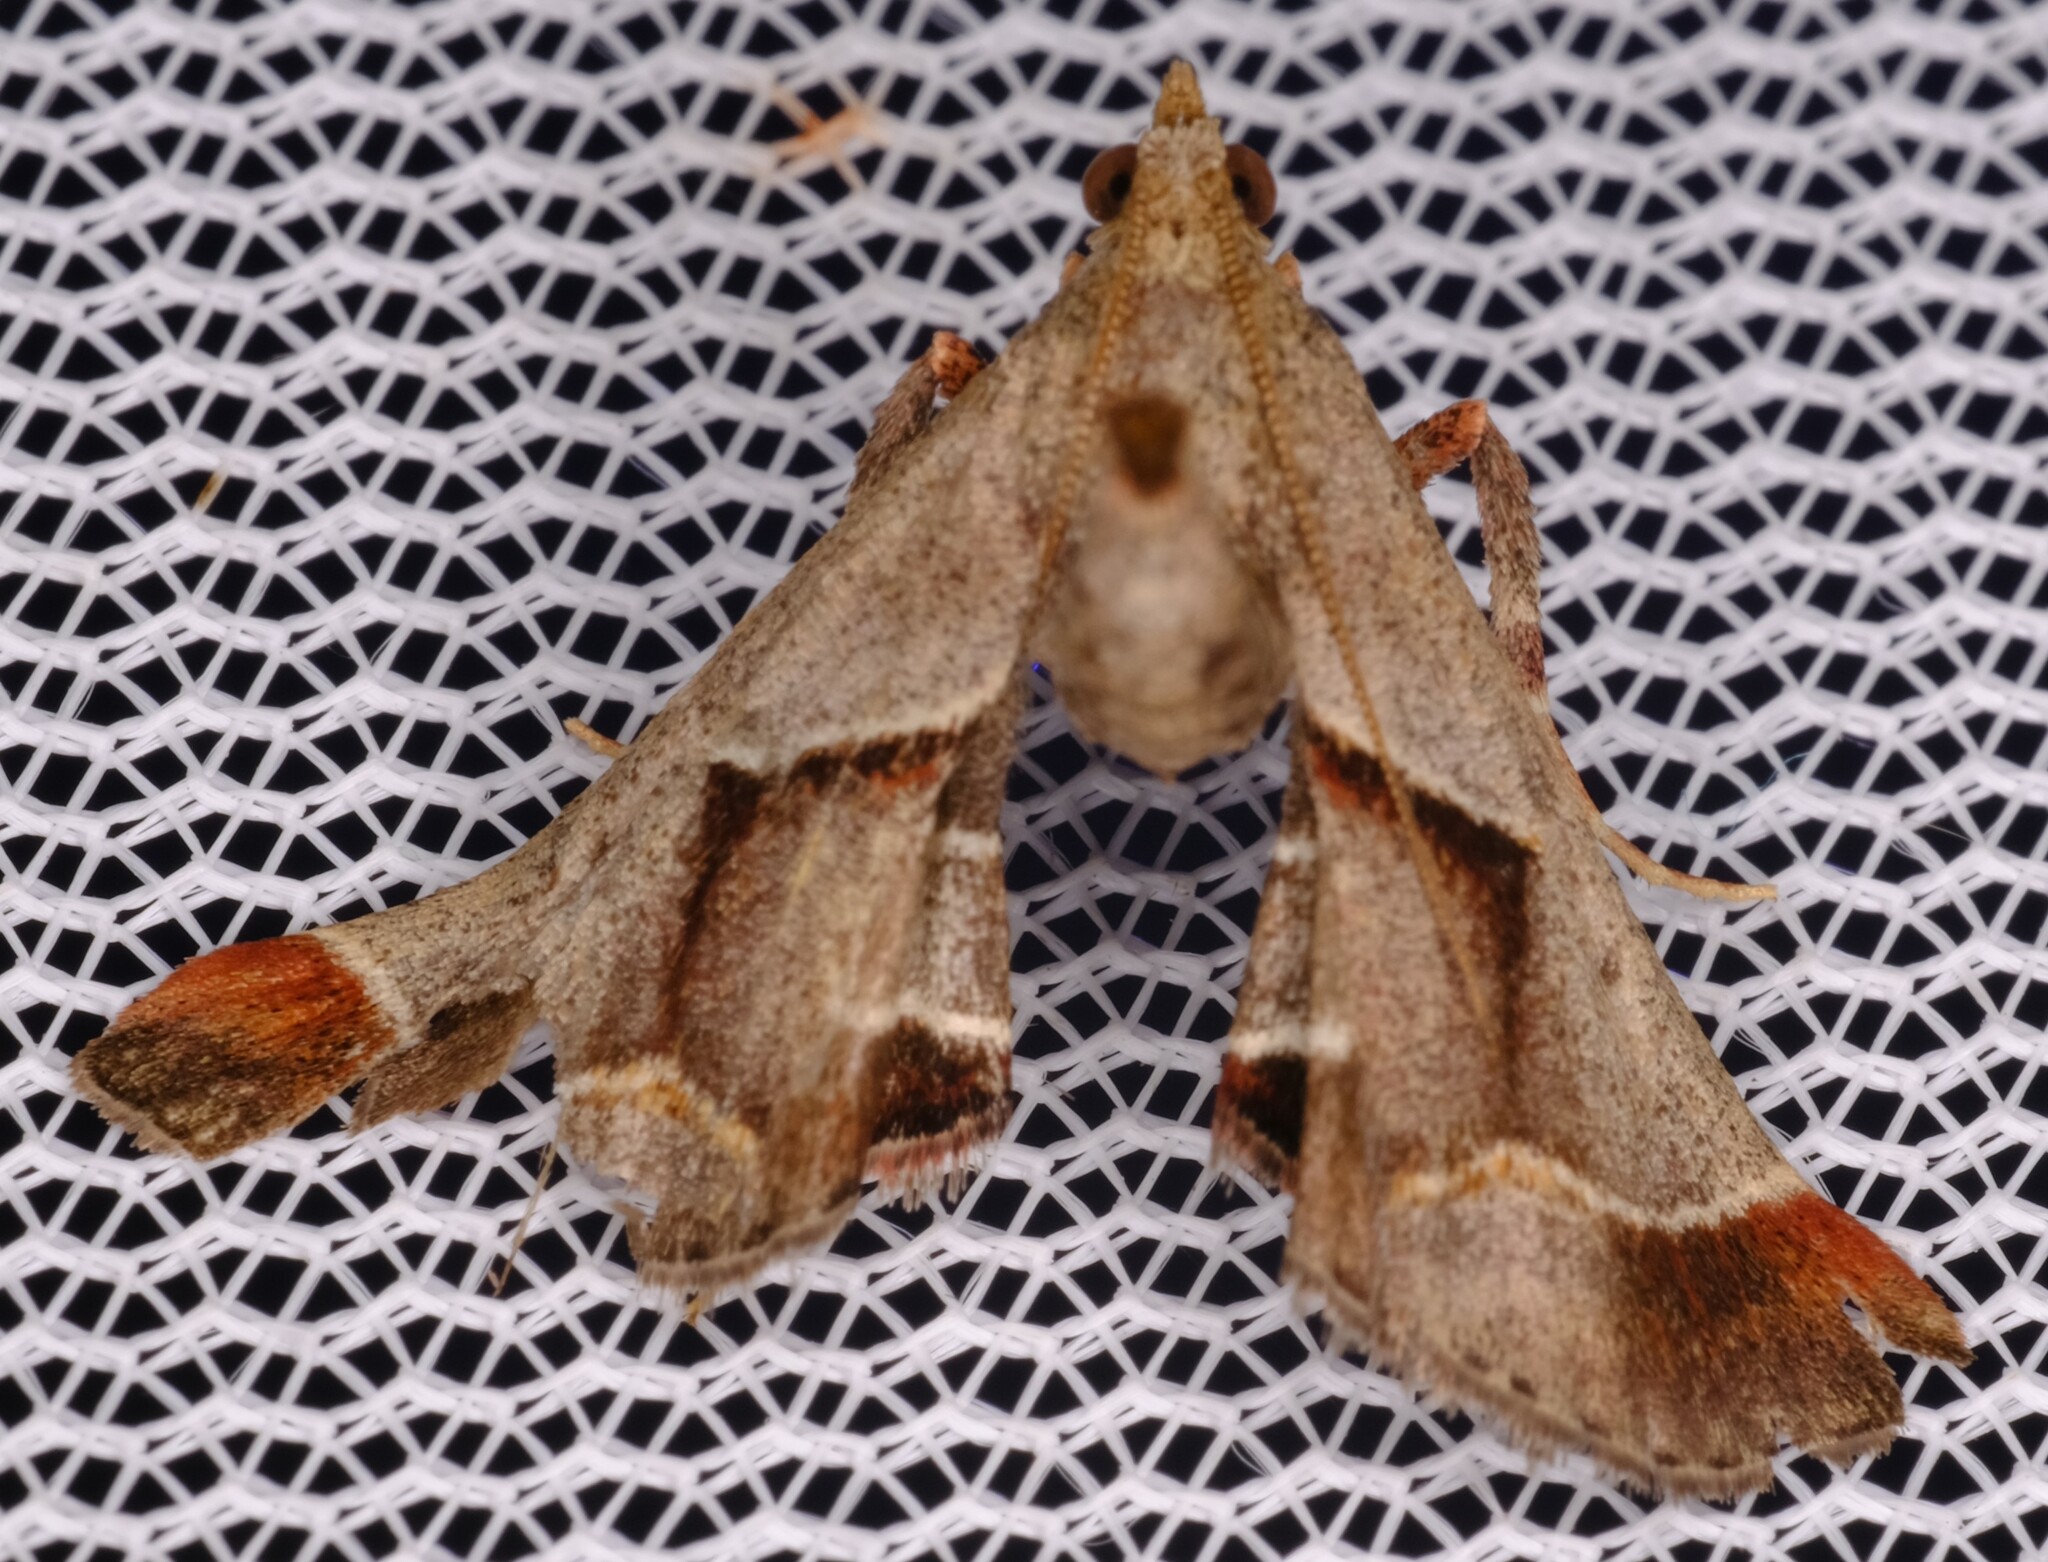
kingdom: Animalia
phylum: Arthropoda
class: Insecta
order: Lepidoptera
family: Pyralidae
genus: Gauna
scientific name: Gauna aegusalis
